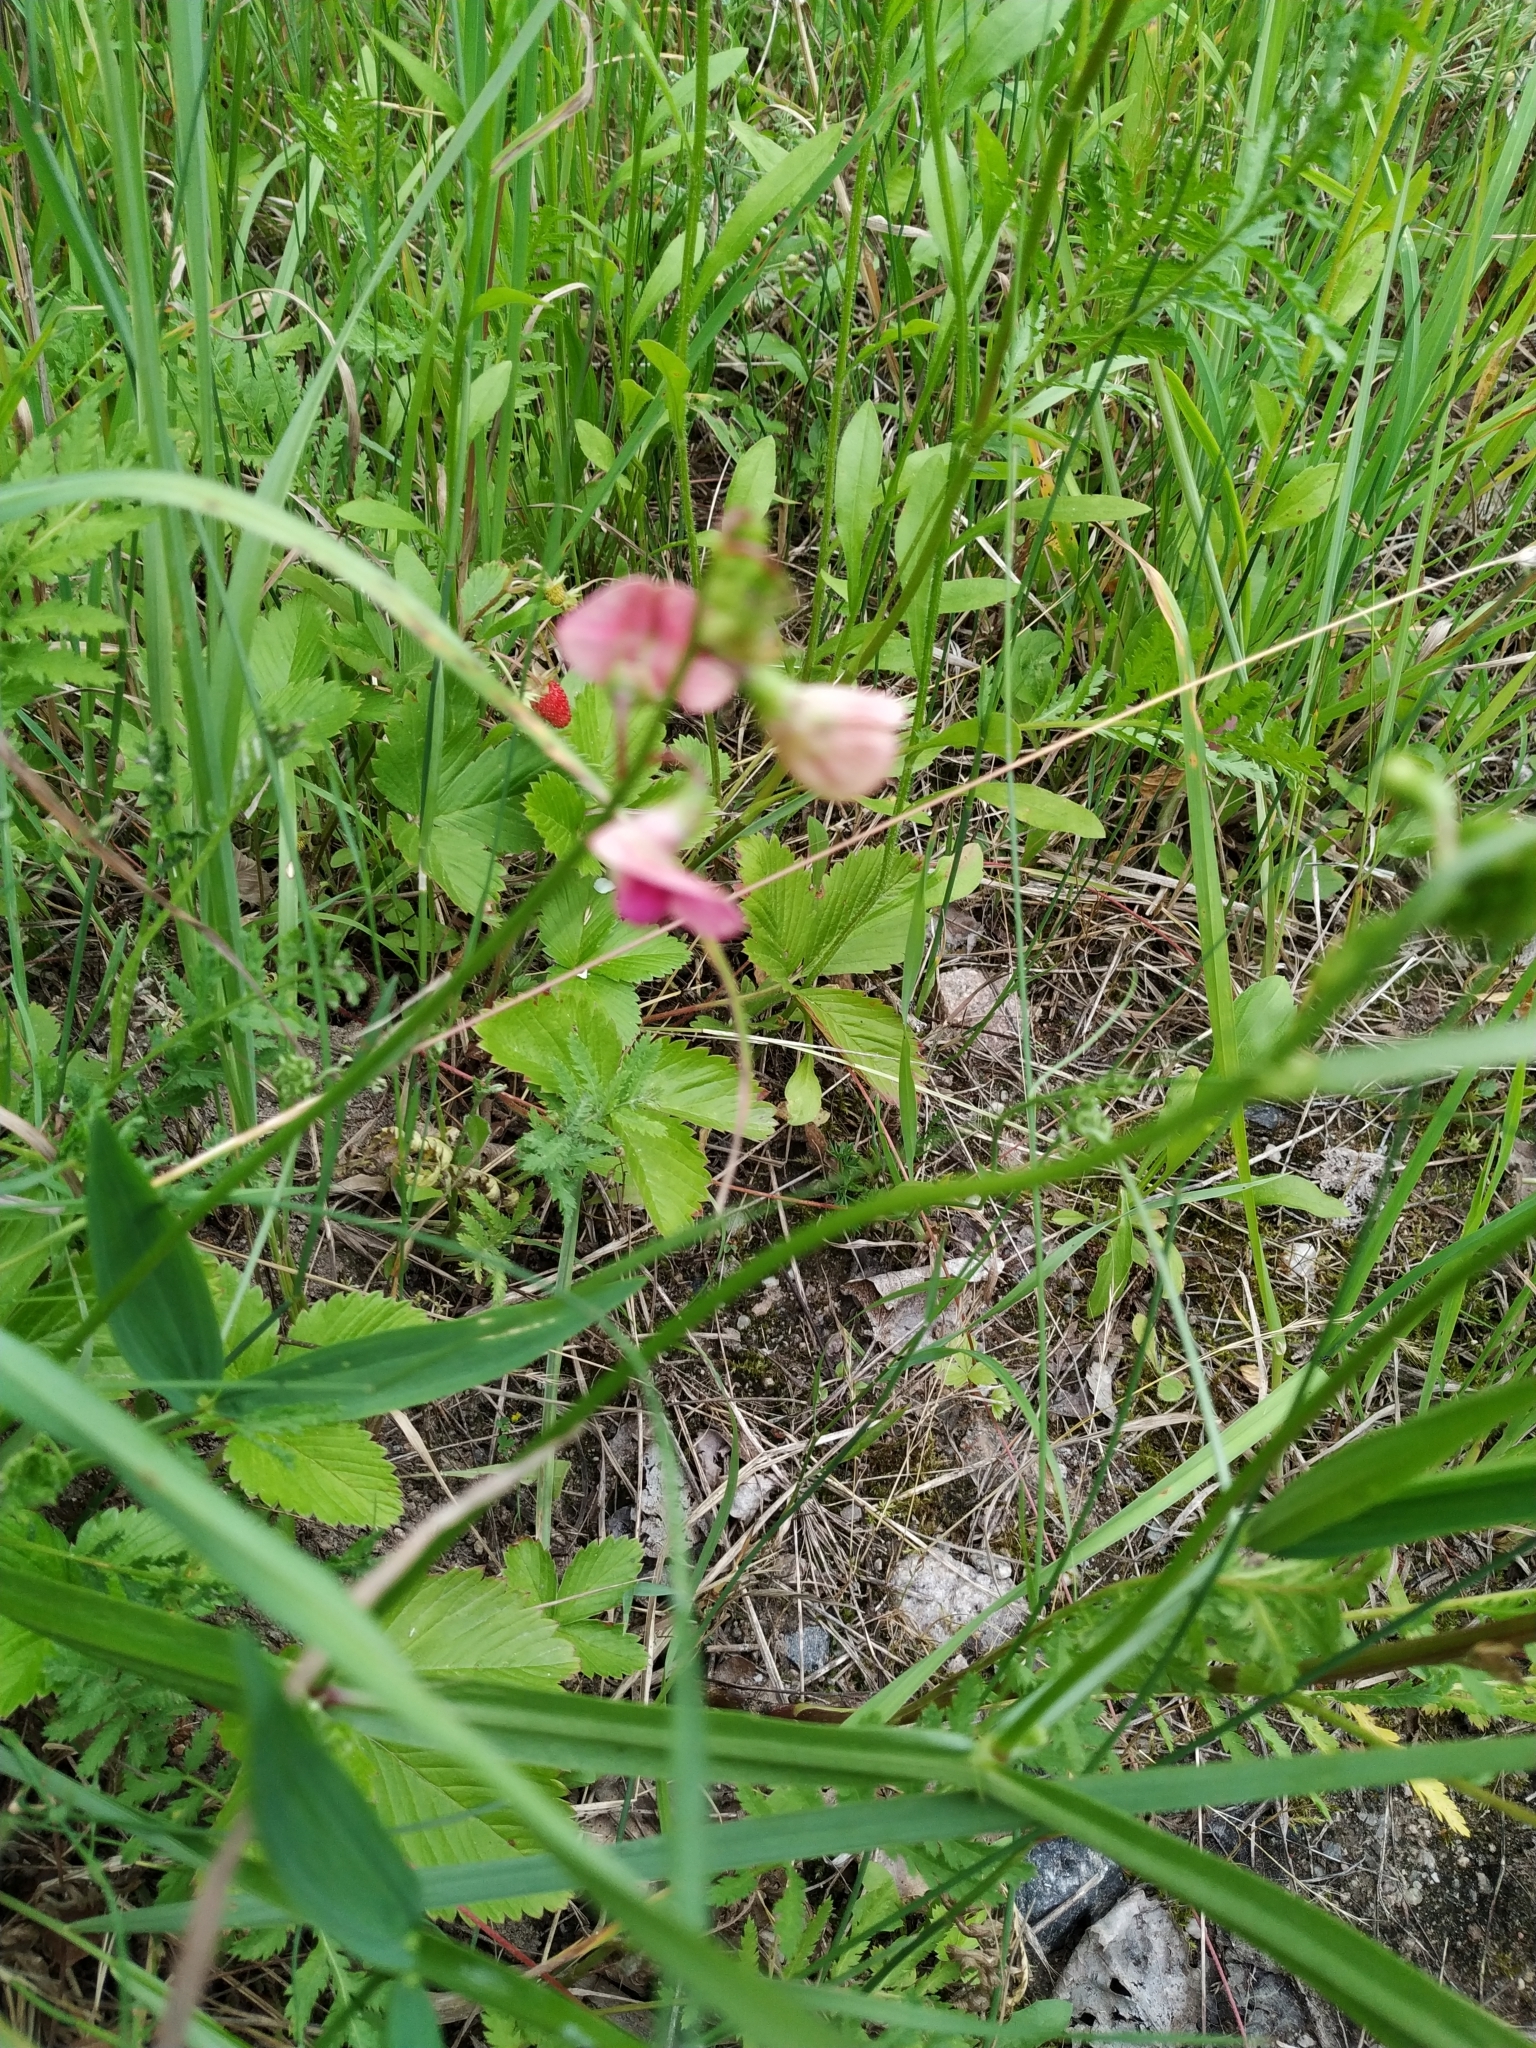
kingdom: Plantae
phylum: Tracheophyta
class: Magnoliopsida
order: Fabales
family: Fabaceae
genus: Lathyrus
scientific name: Lathyrus sylvestris
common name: Flat pea
